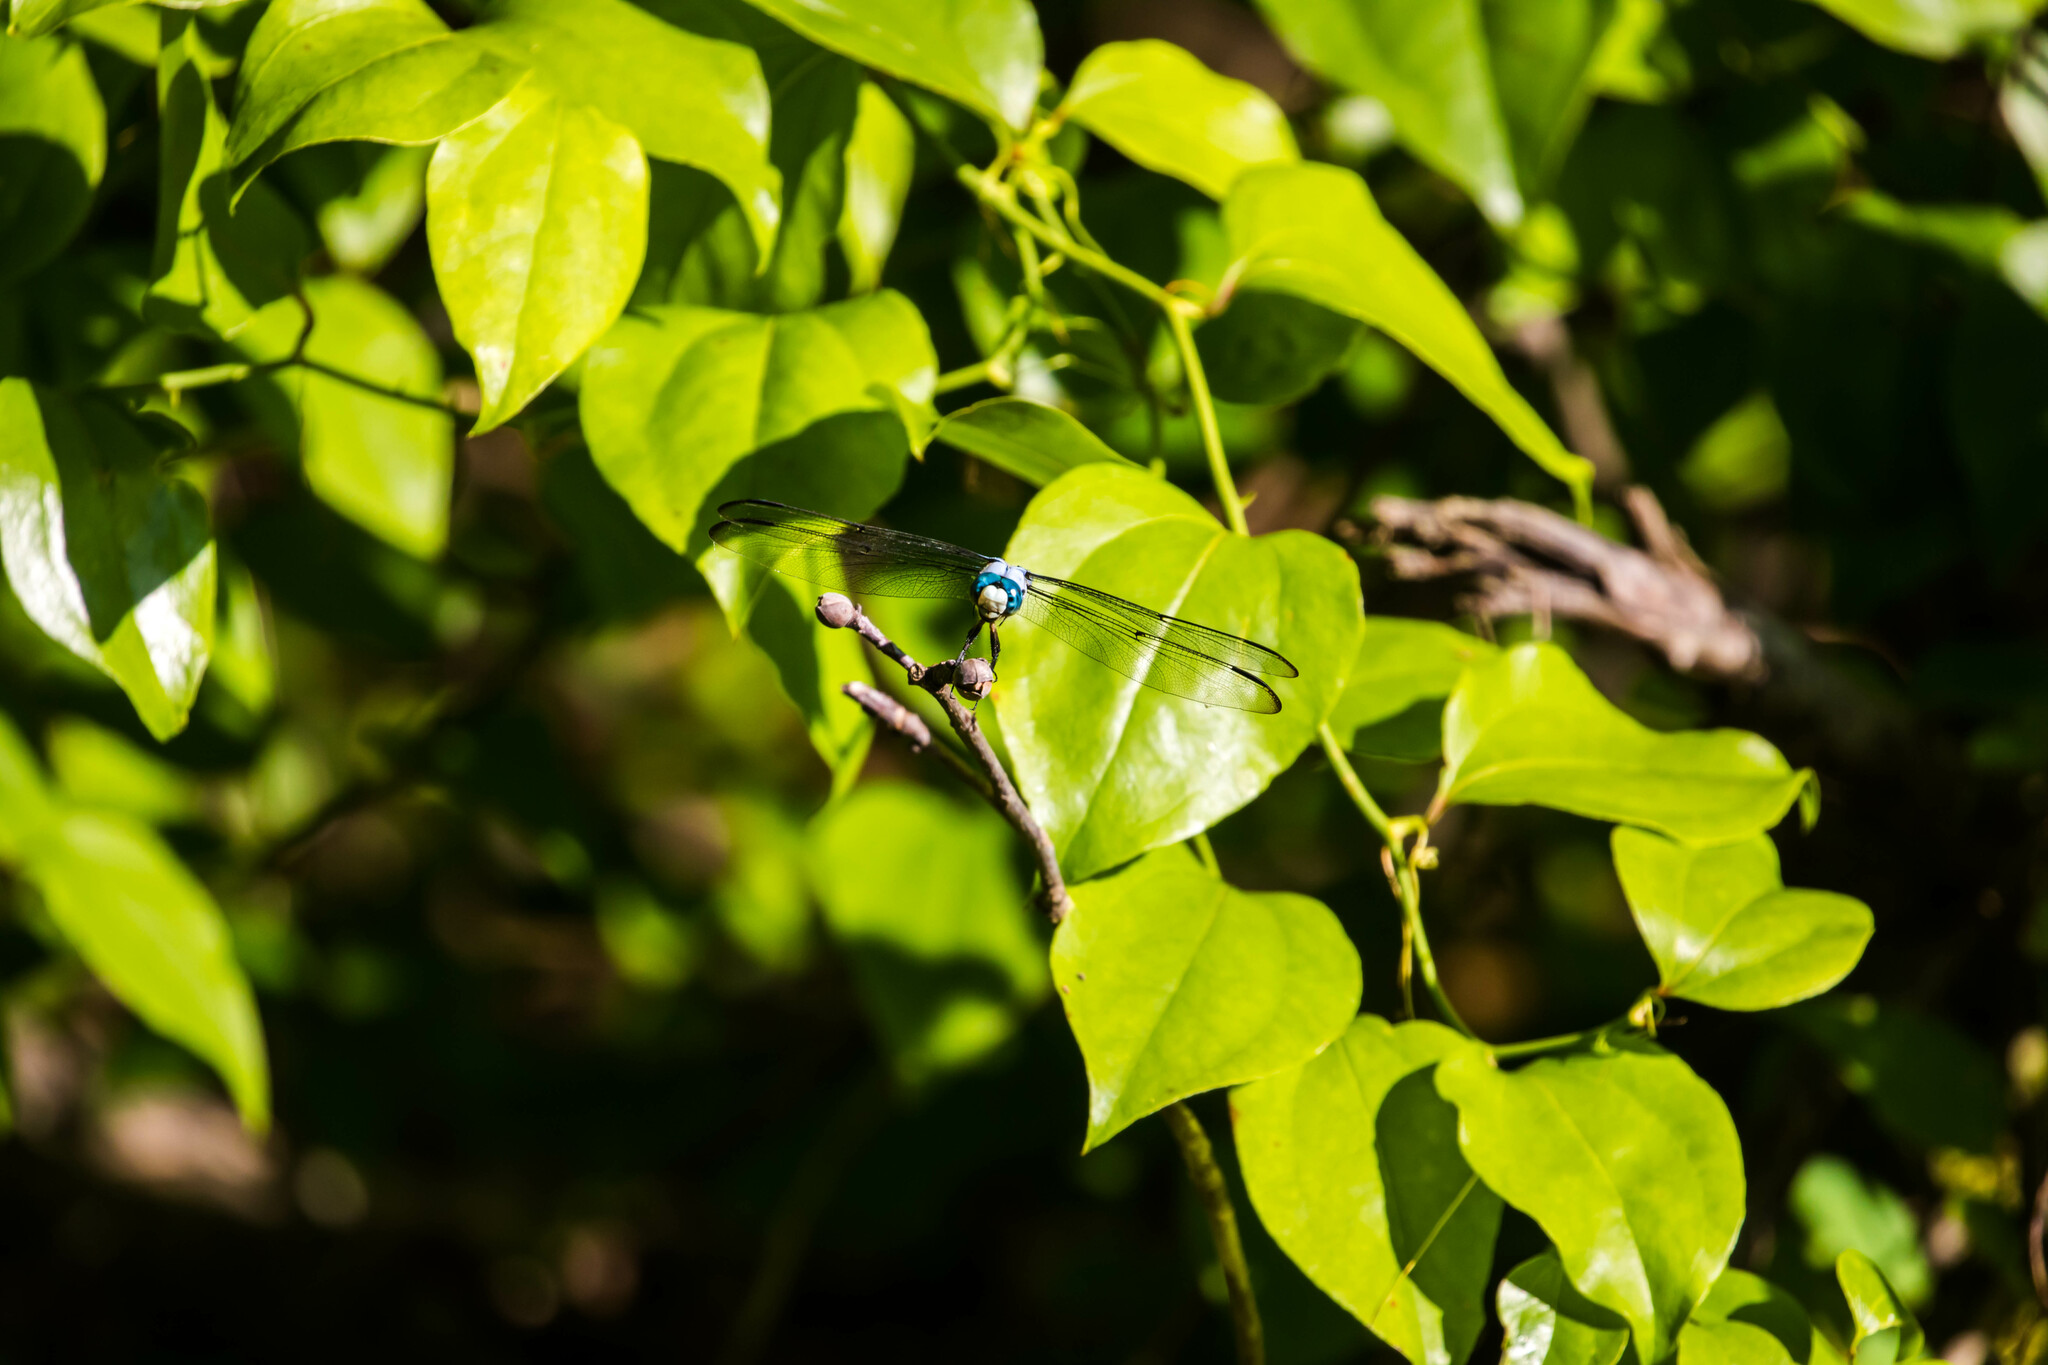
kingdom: Animalia
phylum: Arthropoda
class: Insecta
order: Odonata
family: Libellulidae
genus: Libellula
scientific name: Libellula vibrans
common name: Great blue skimmer
